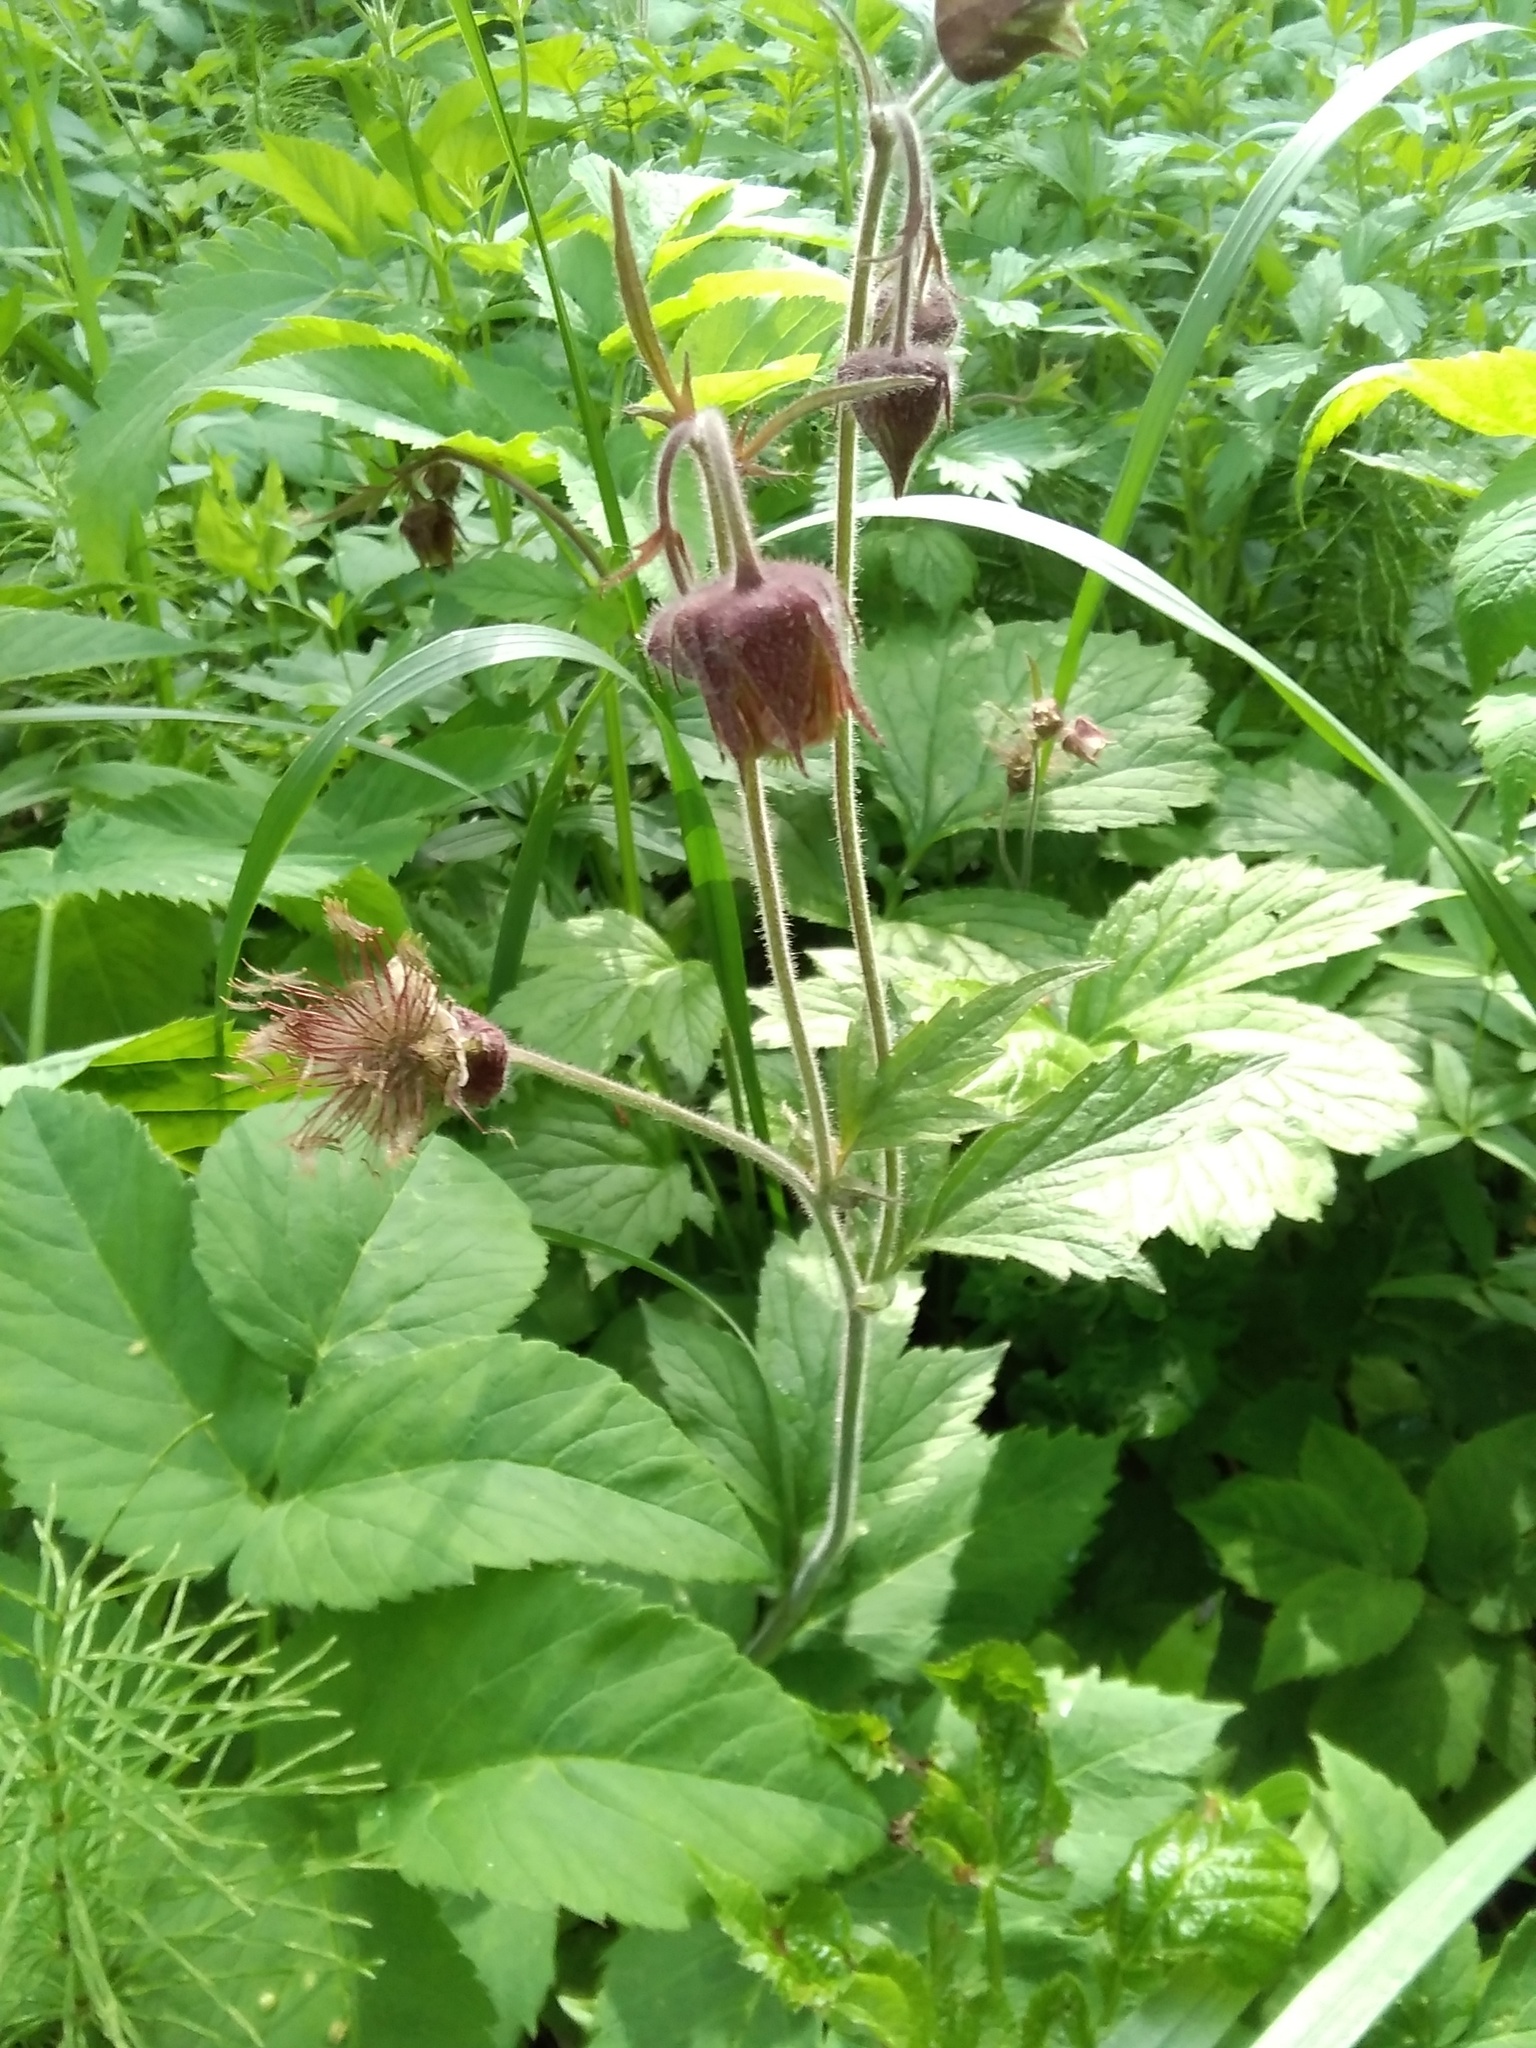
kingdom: Plantae
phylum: Tracheophyta
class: Magnoliopsida
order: Rosales
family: Rosaceae
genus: Geum
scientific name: Geum rivale
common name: Water avens
